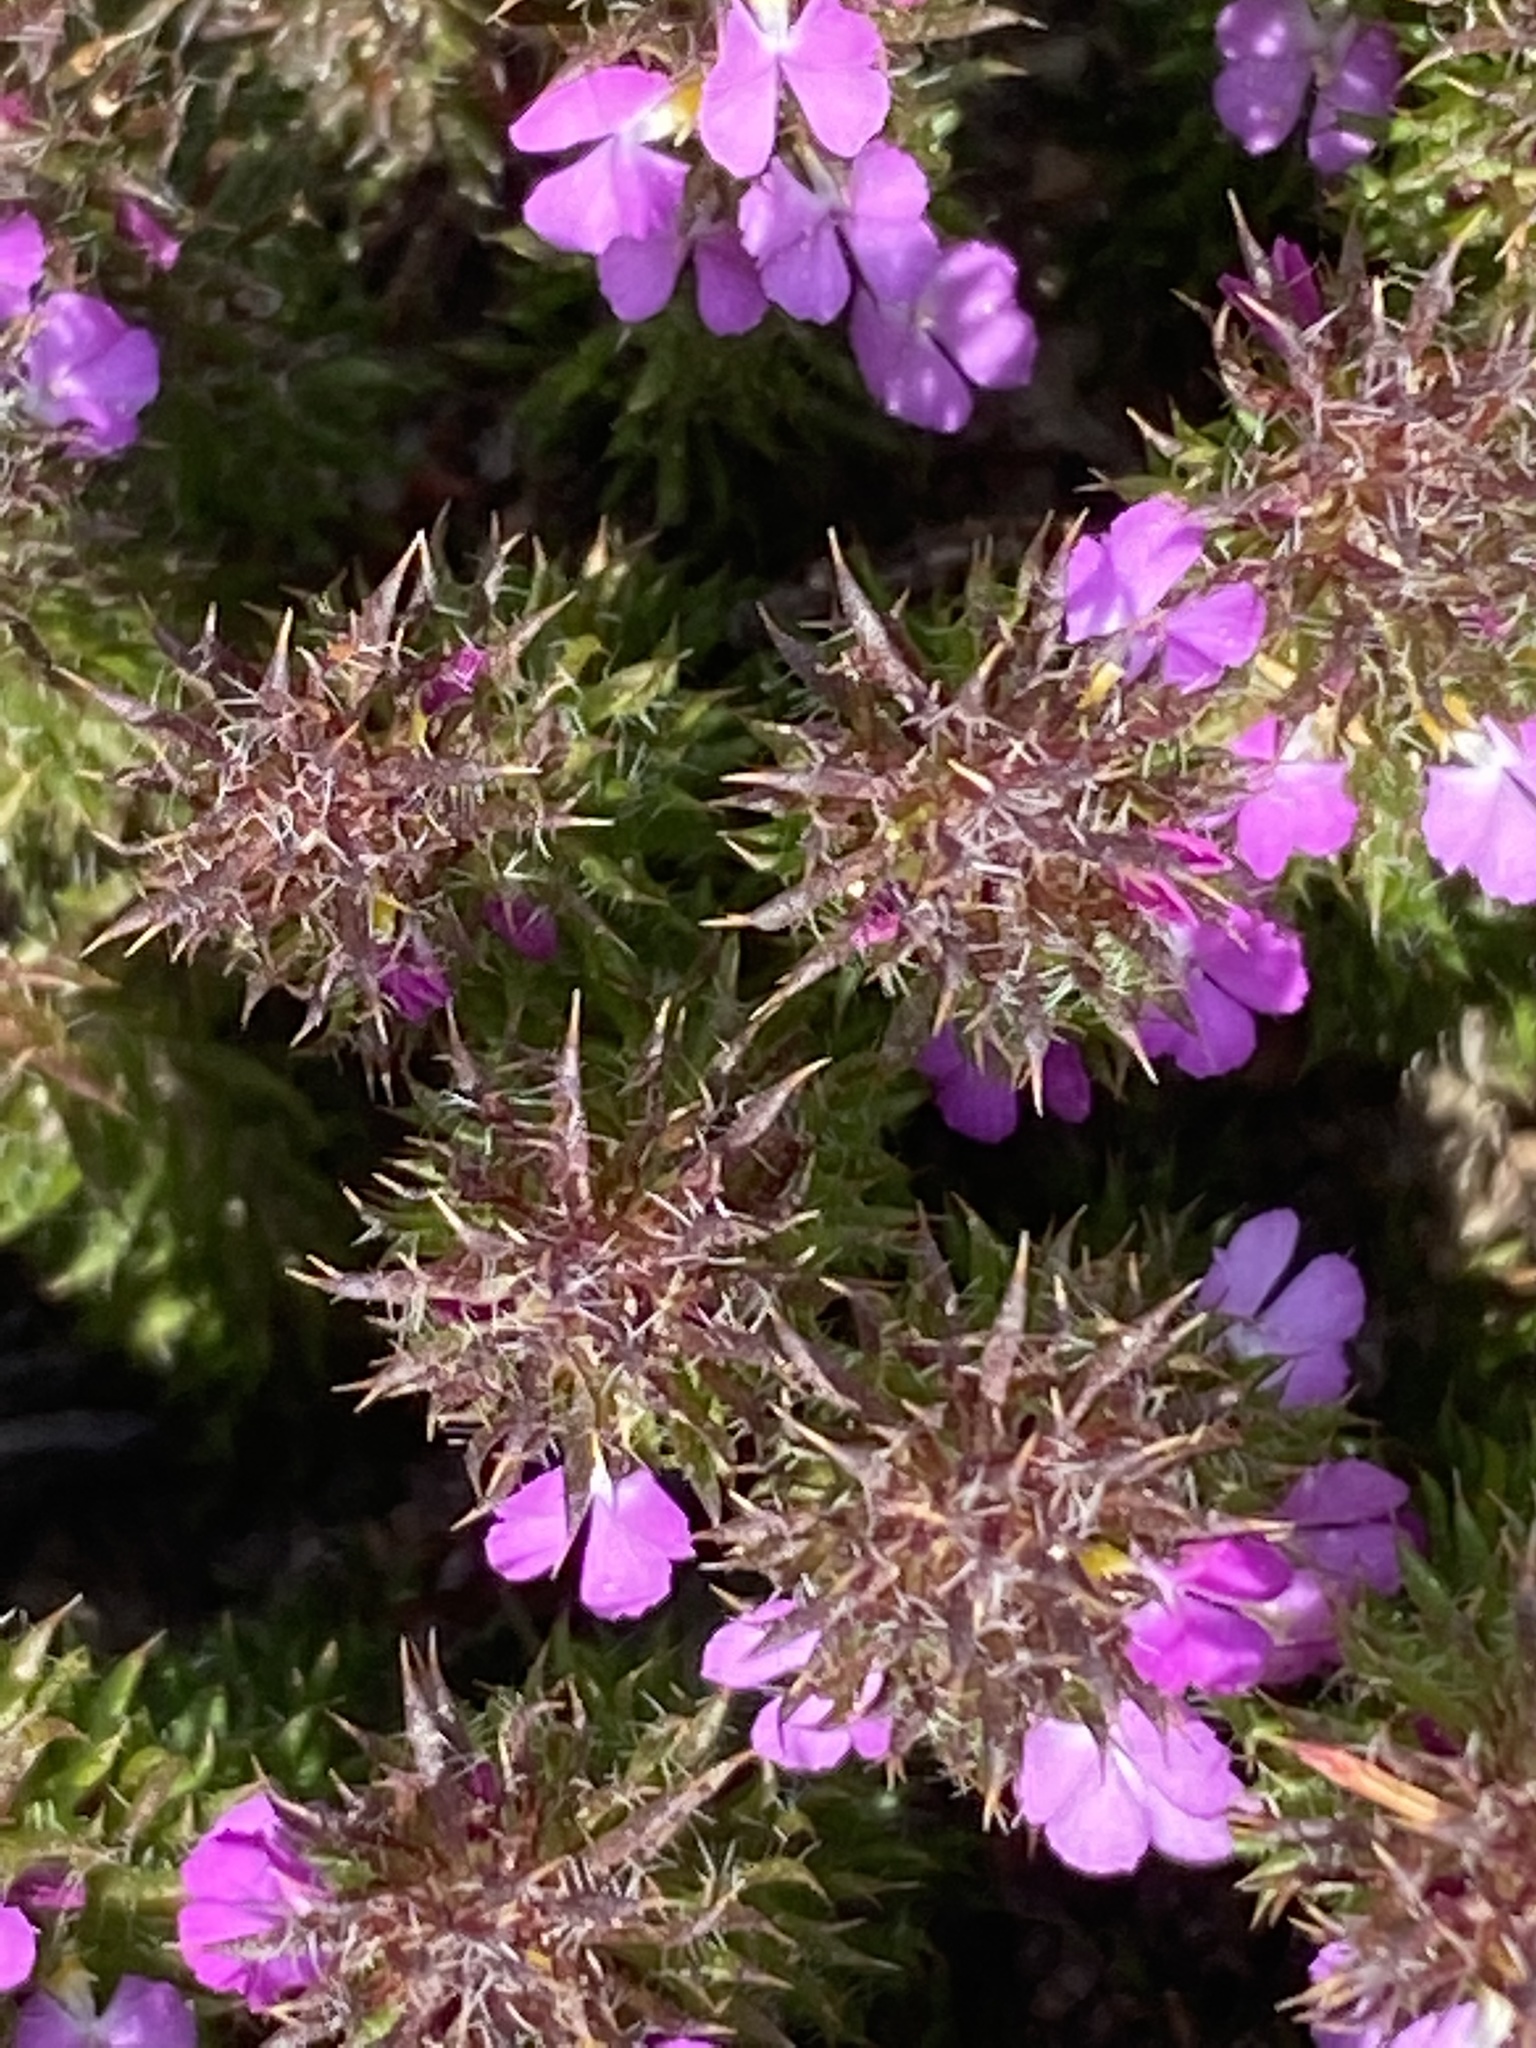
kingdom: Plantae
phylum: Tracheophyta
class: Magnoliopsida
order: Fabales
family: Polygalaceae
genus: Muraltia
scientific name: Muraltia ciliaris
